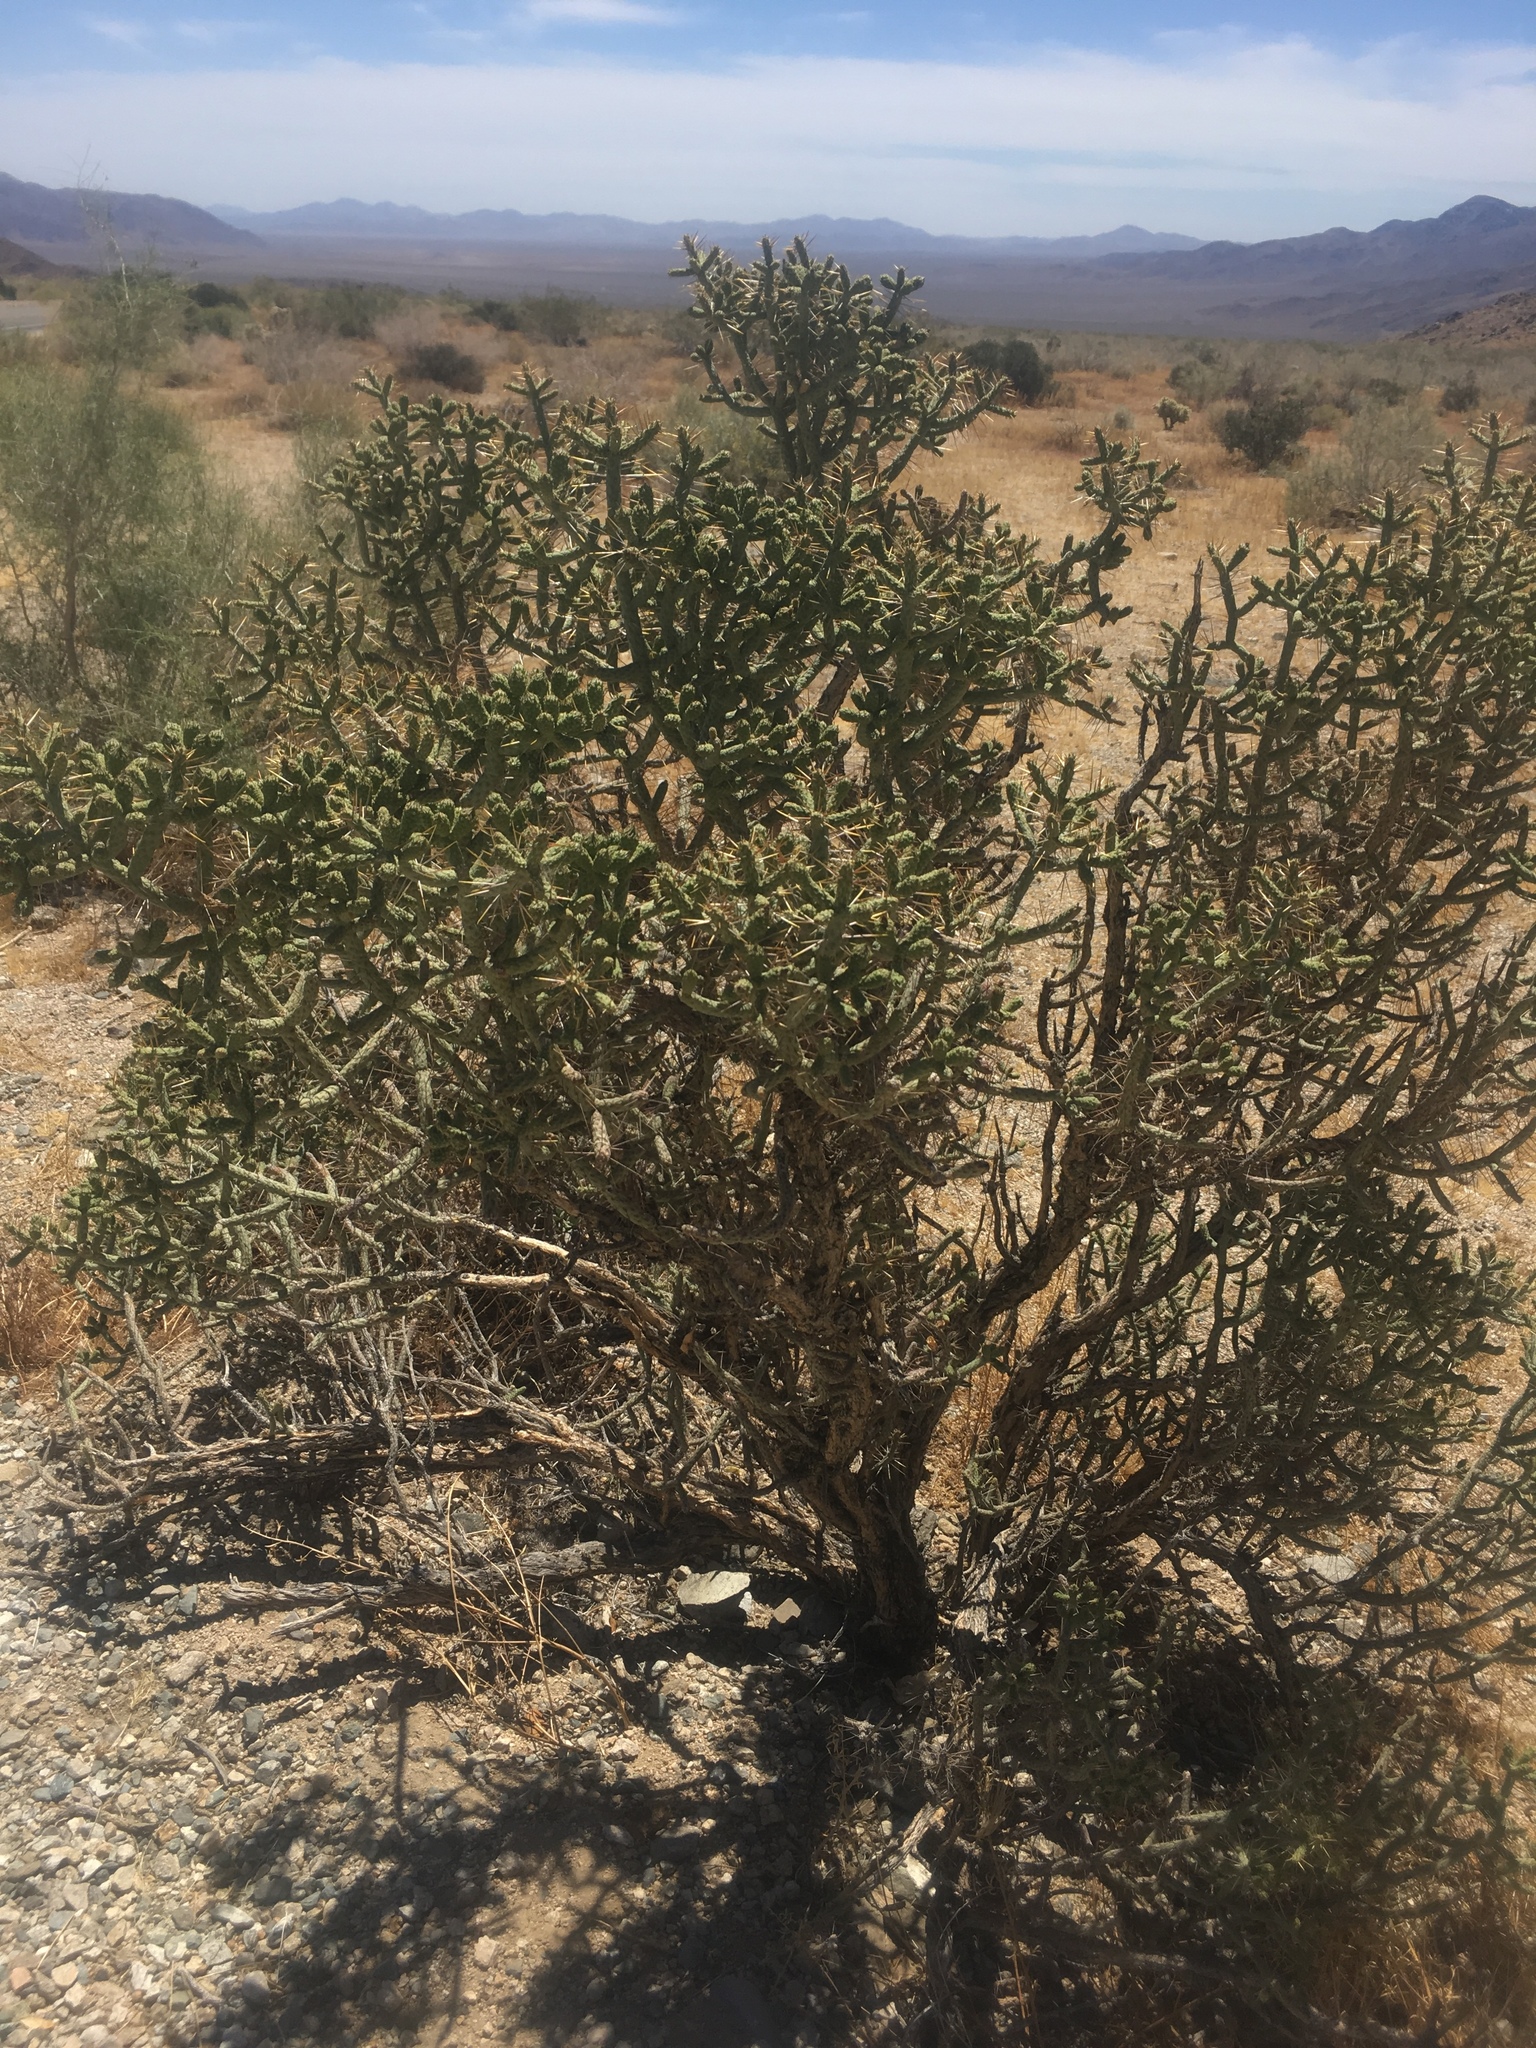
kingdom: Plantae
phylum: Tracheophyta
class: Magnoliopsida
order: Caryophyllales
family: Cactaceae
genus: Cylindropuntia
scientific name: Cylindropuntia ramosissima
